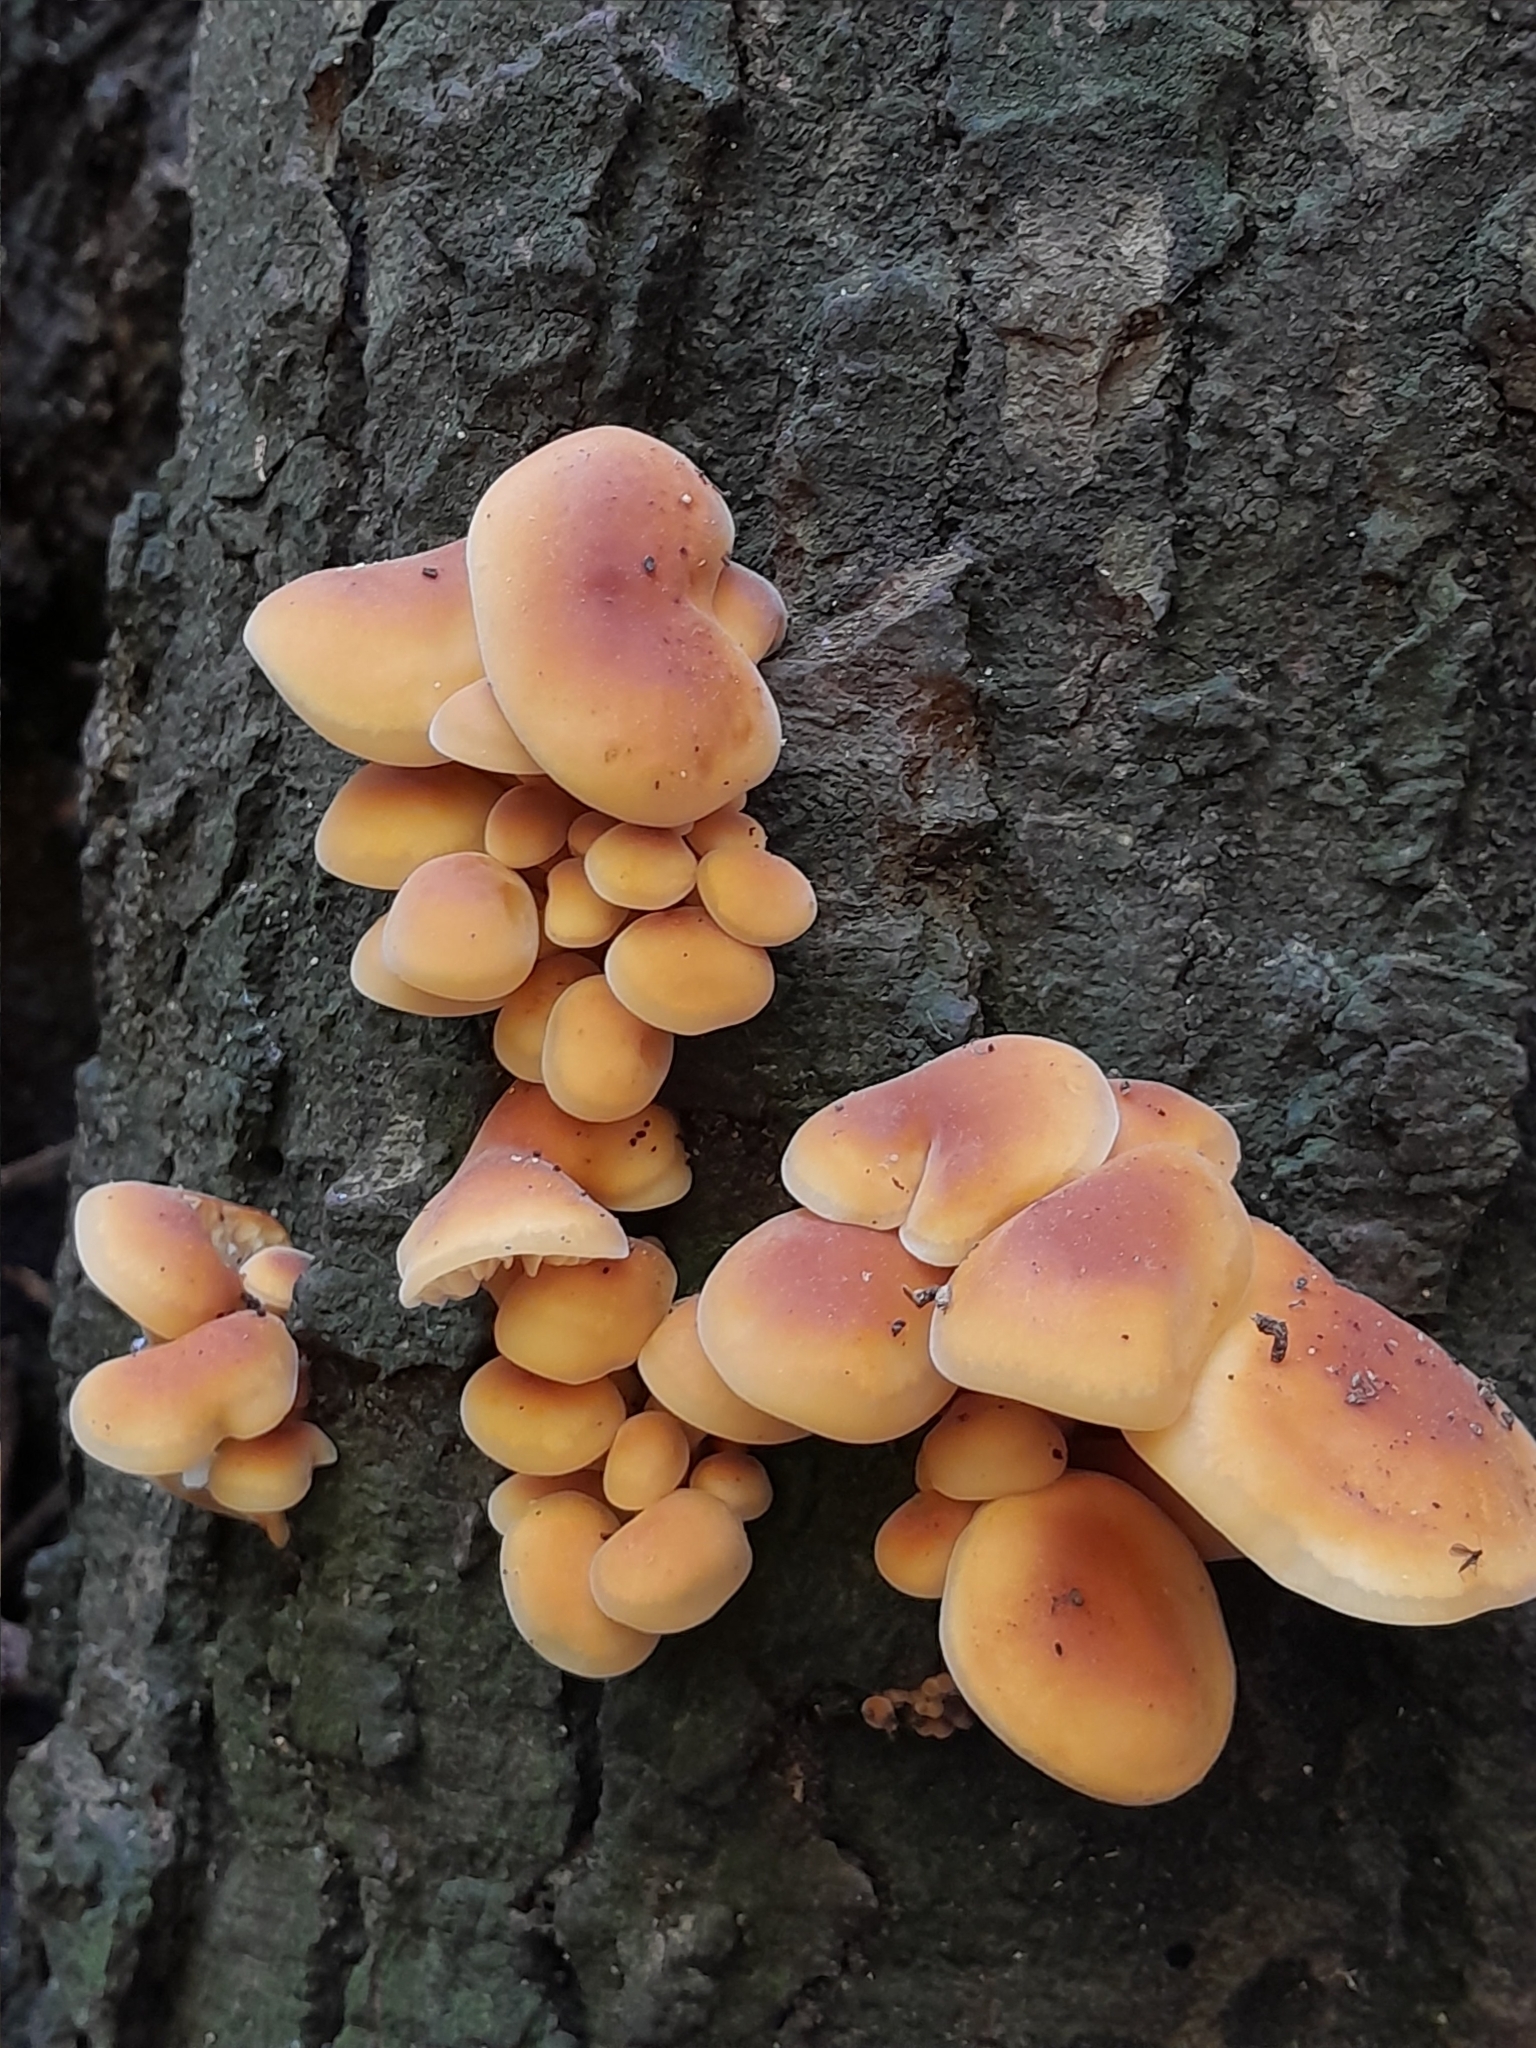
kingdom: Fungi
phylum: Basidiomycota
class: Agaricomycetes
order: Agaricales
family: Physalacriaceae
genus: Flammulina
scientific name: Flammulina velutipes
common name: Velvet shank
